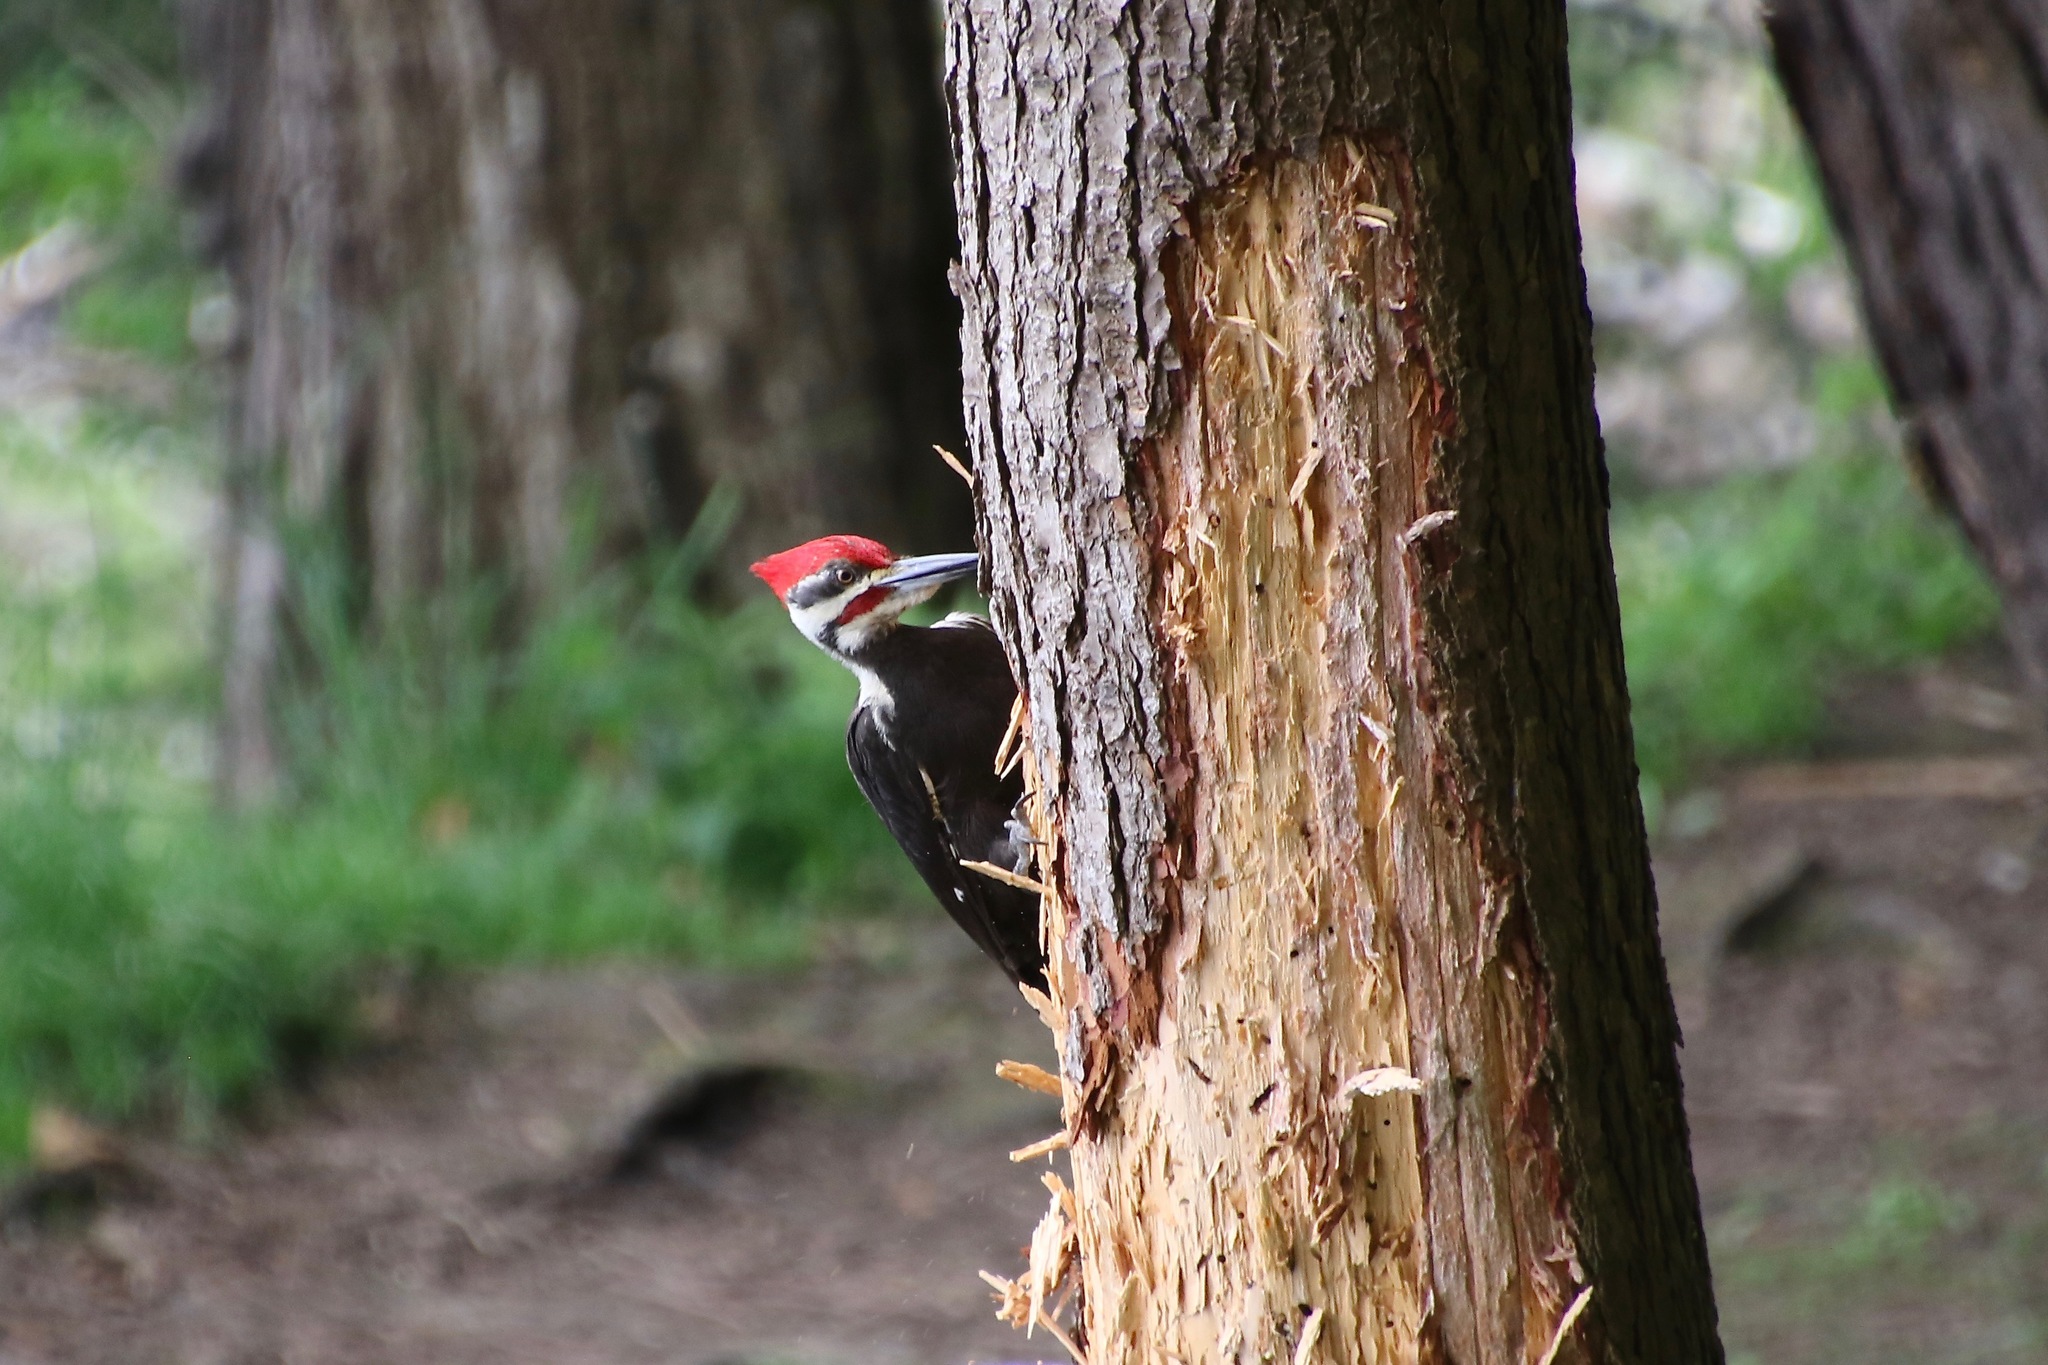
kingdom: Animalia
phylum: Chordata
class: Aves
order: Piciformes
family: Picidae
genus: Dryocopus
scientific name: Dryocopus pileatus
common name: Pileated woodpecker
